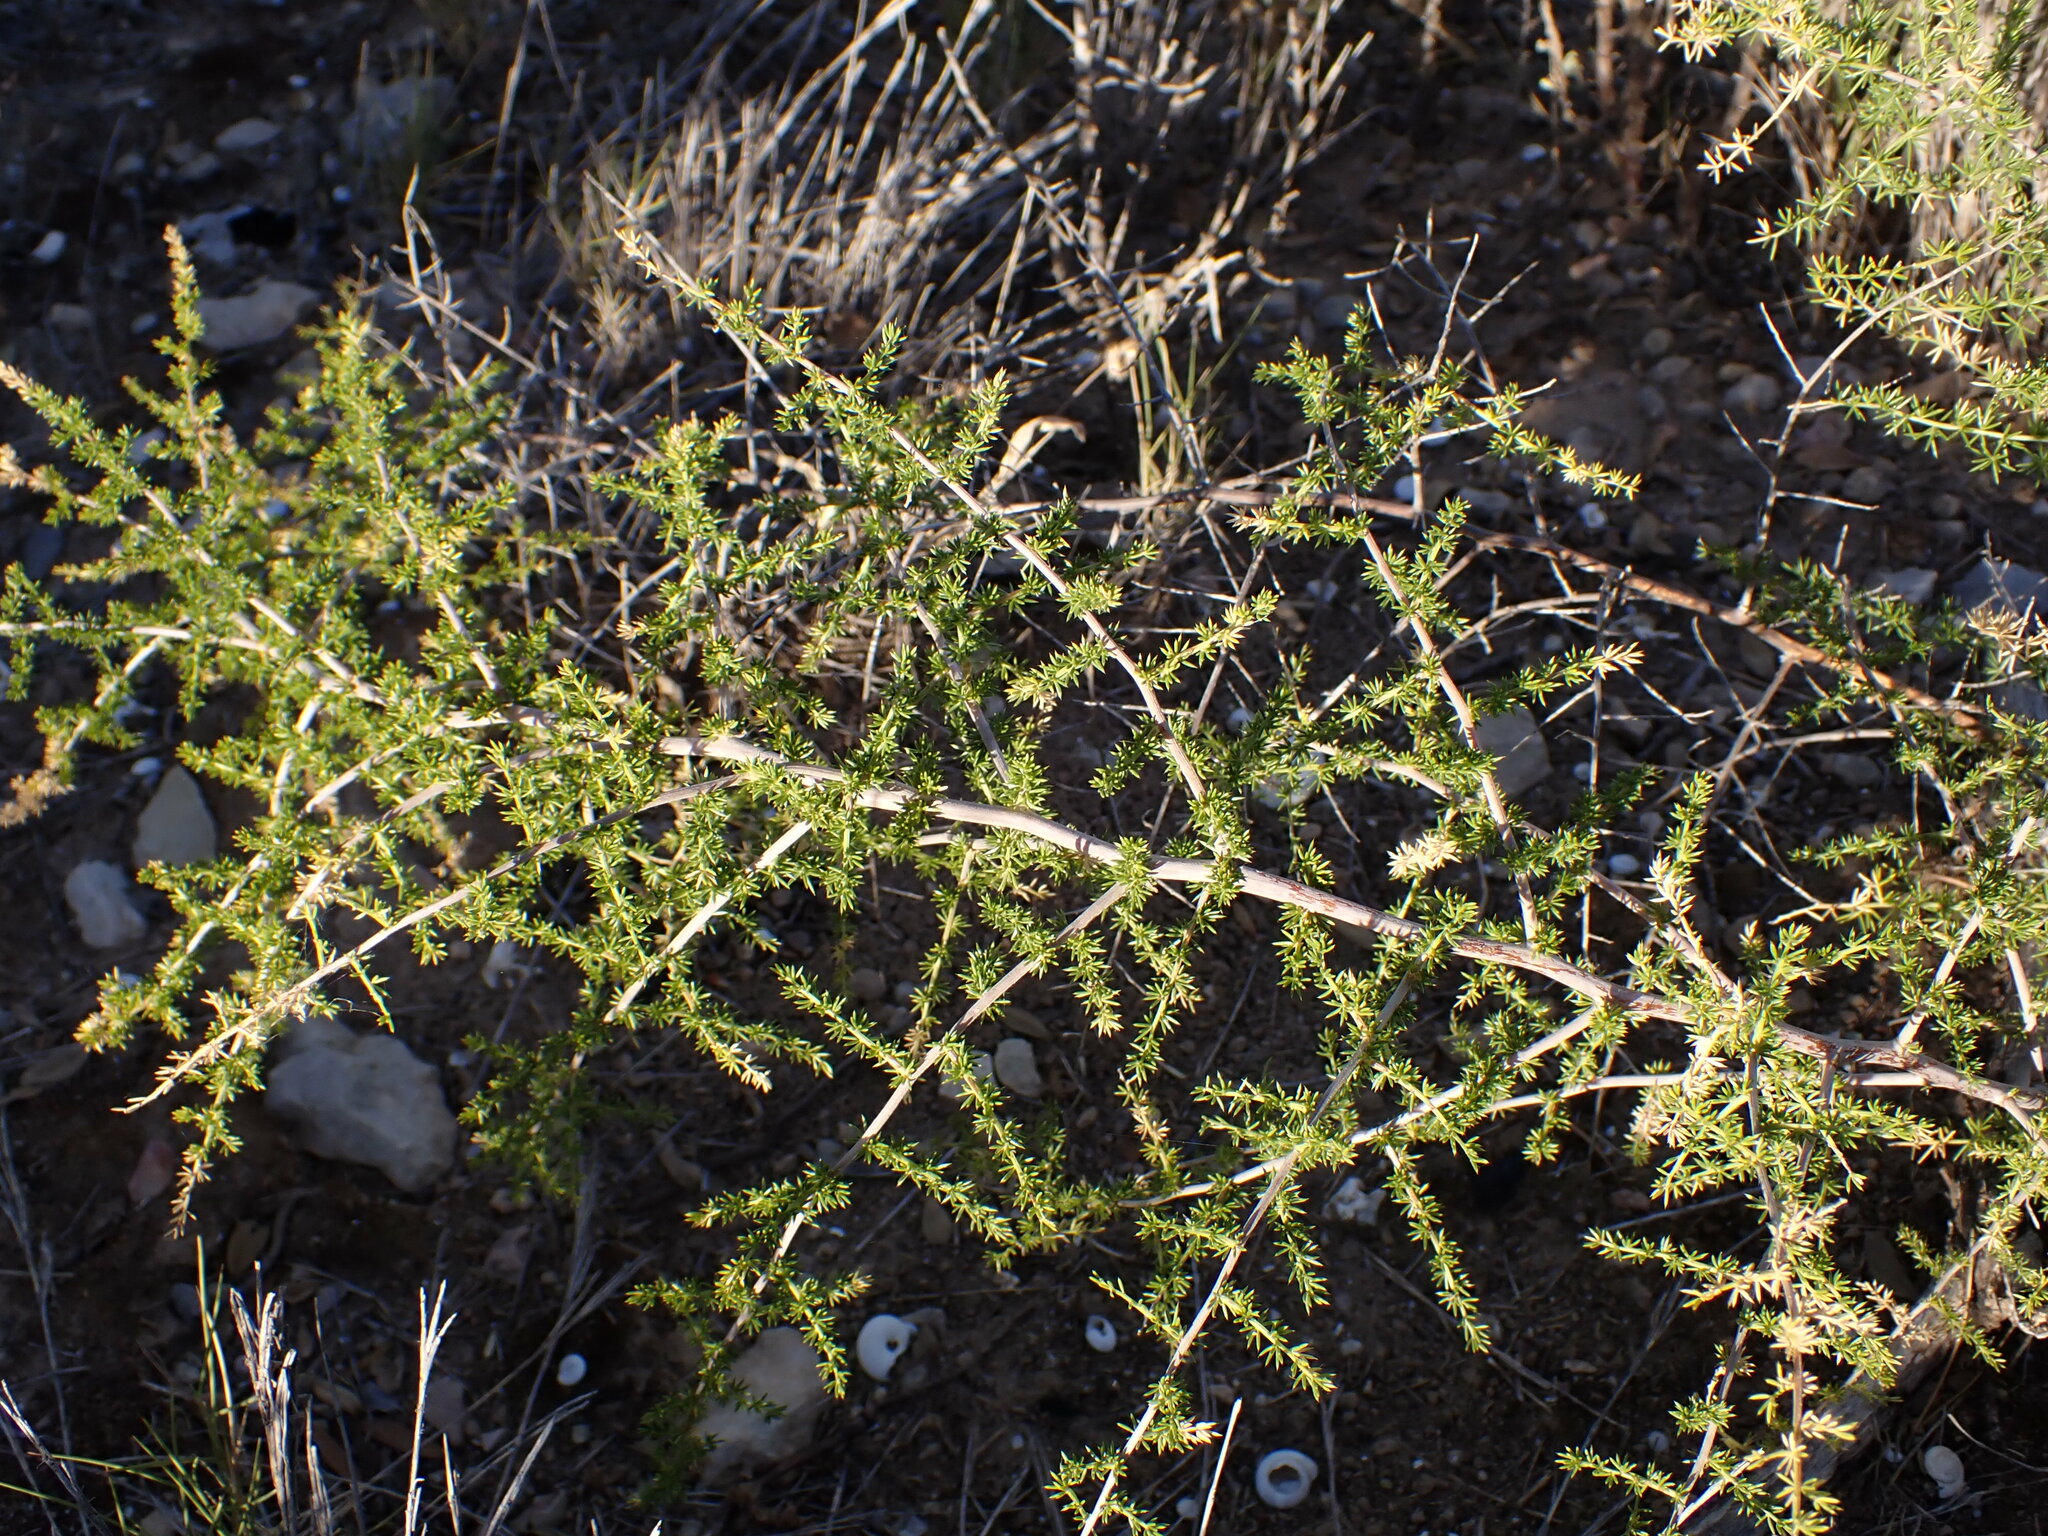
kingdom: Plantae
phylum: Tracheophyta
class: Liliopsida
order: Asparagales
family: Asparagaceae
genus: Asparagus
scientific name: Asparagus acutifolius
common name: Wild asparagus
